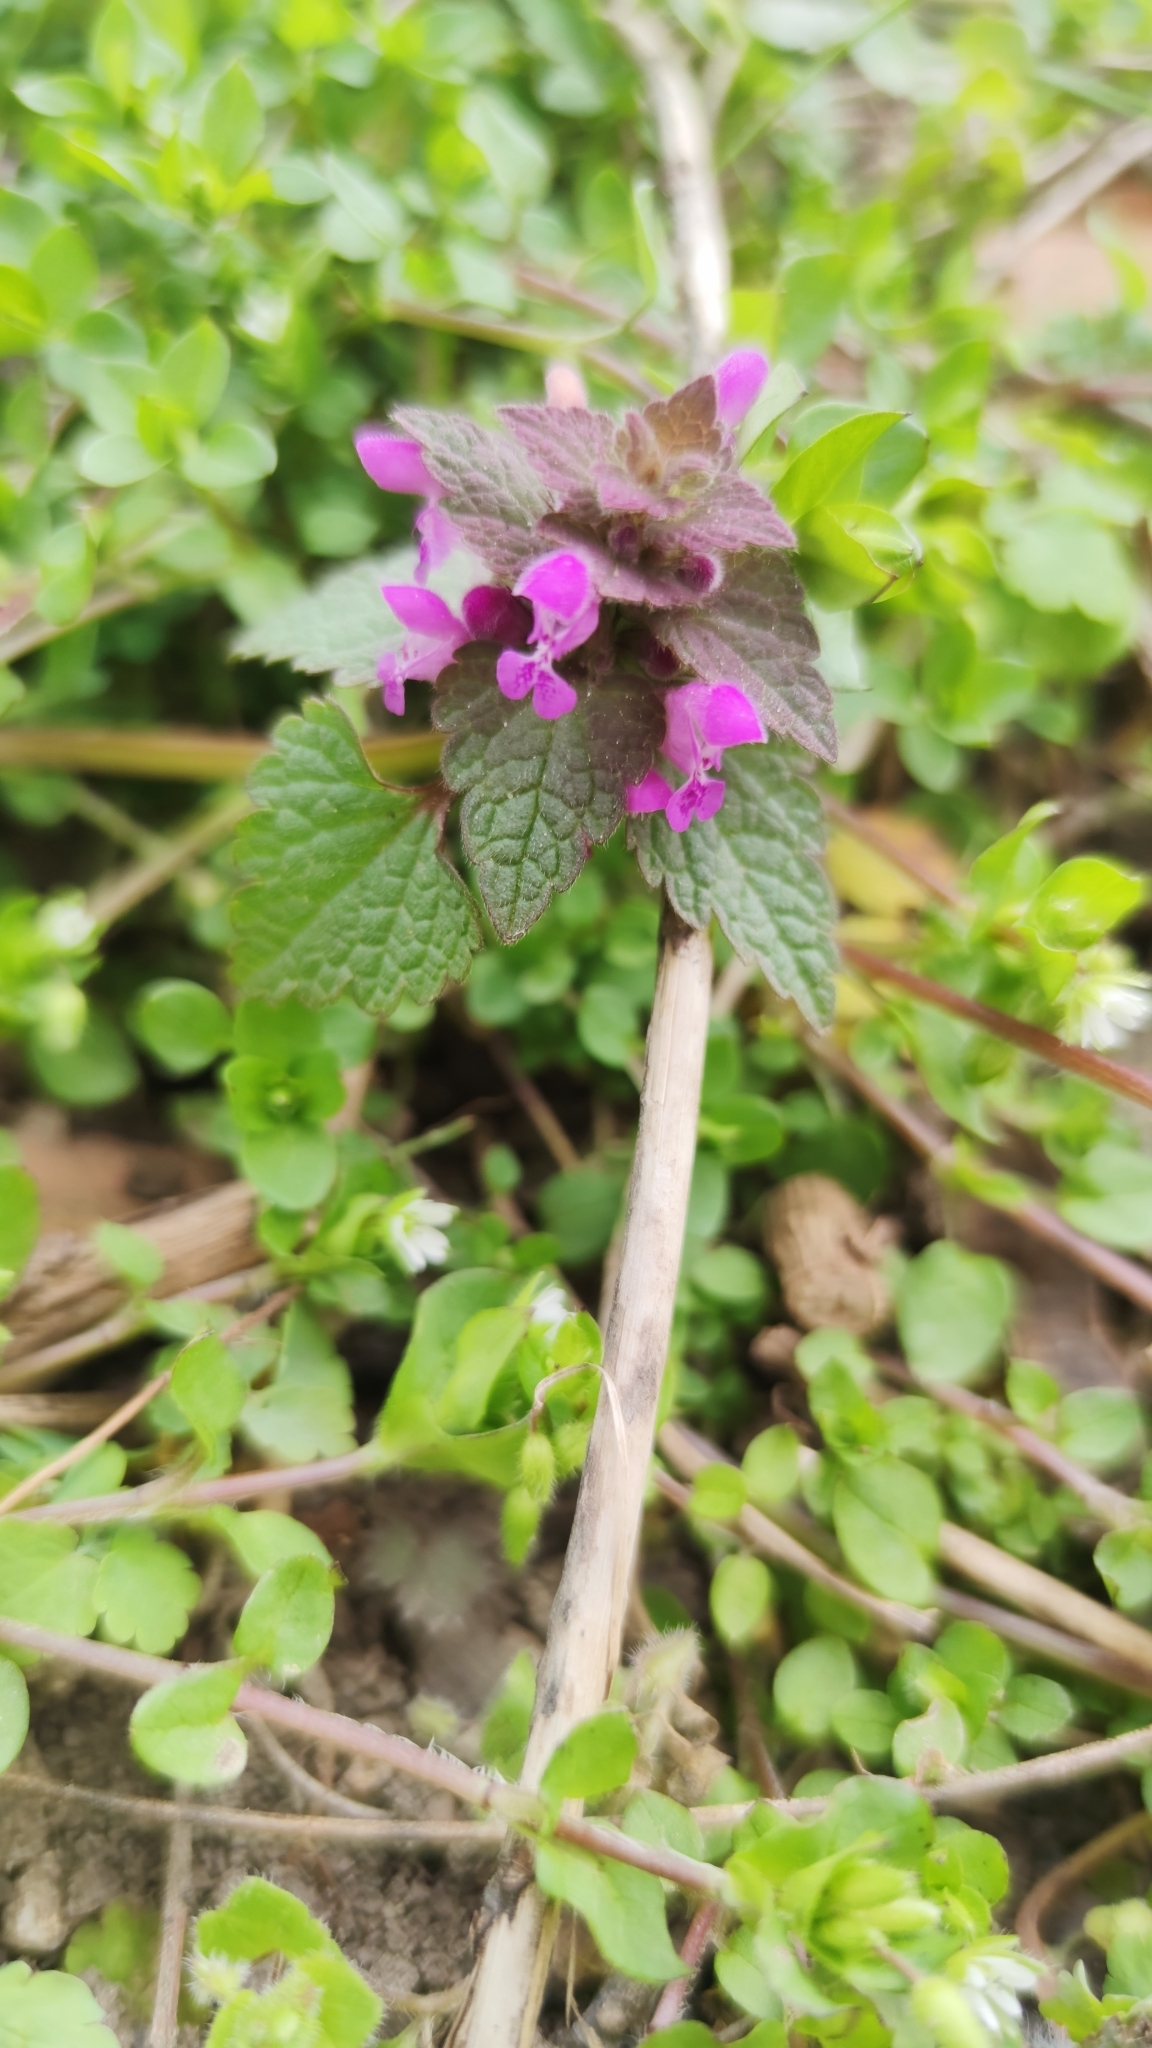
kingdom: Plantae
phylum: Tracheophyta
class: Magnoliopsida
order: Lamiales
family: Lamiaceae
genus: Lamium
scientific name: Lamium purpureum
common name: Red dead-nettle
